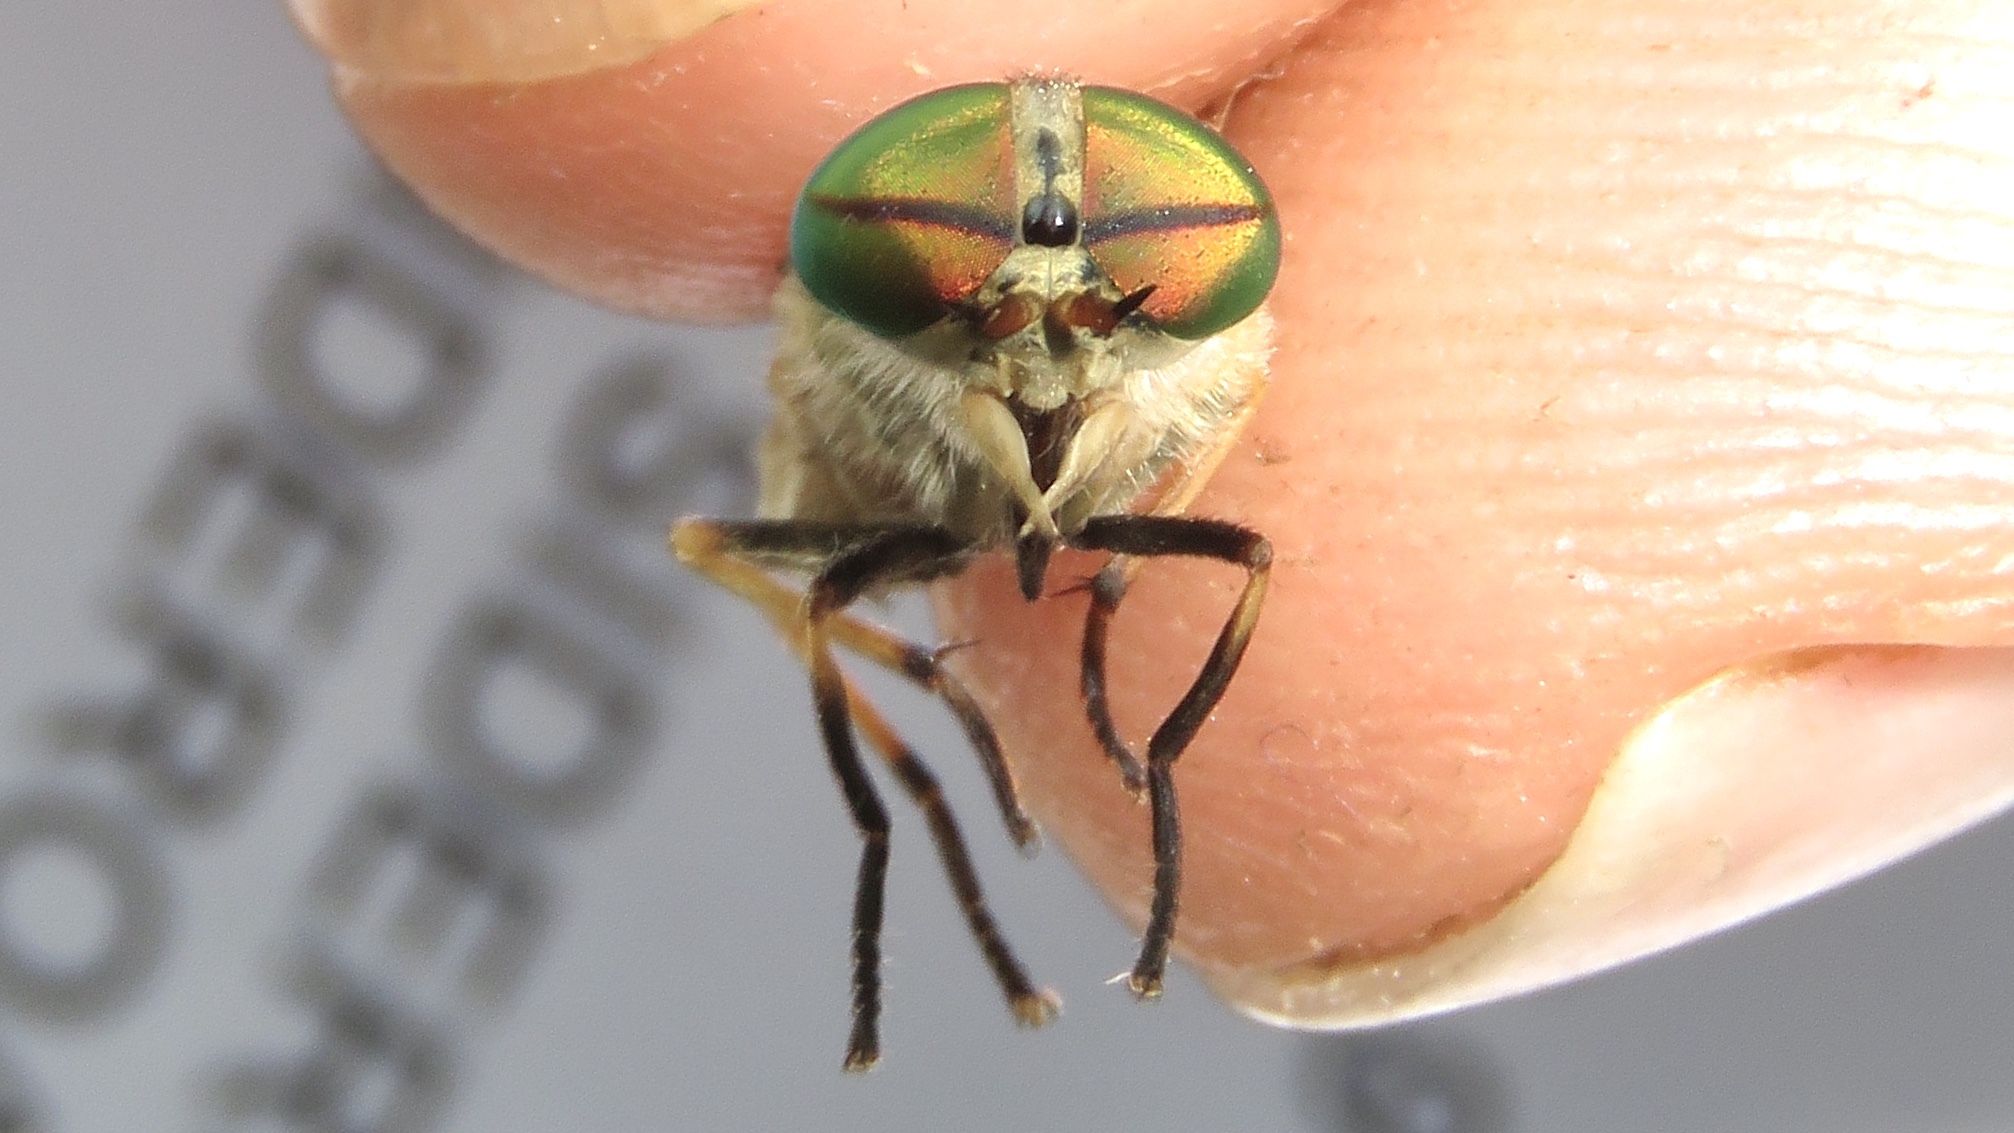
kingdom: Animalia
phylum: Arthropoda
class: Insecta
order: Diptera
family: Tabanidae
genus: Tabanus
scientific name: Tabanus quinquevittatus
